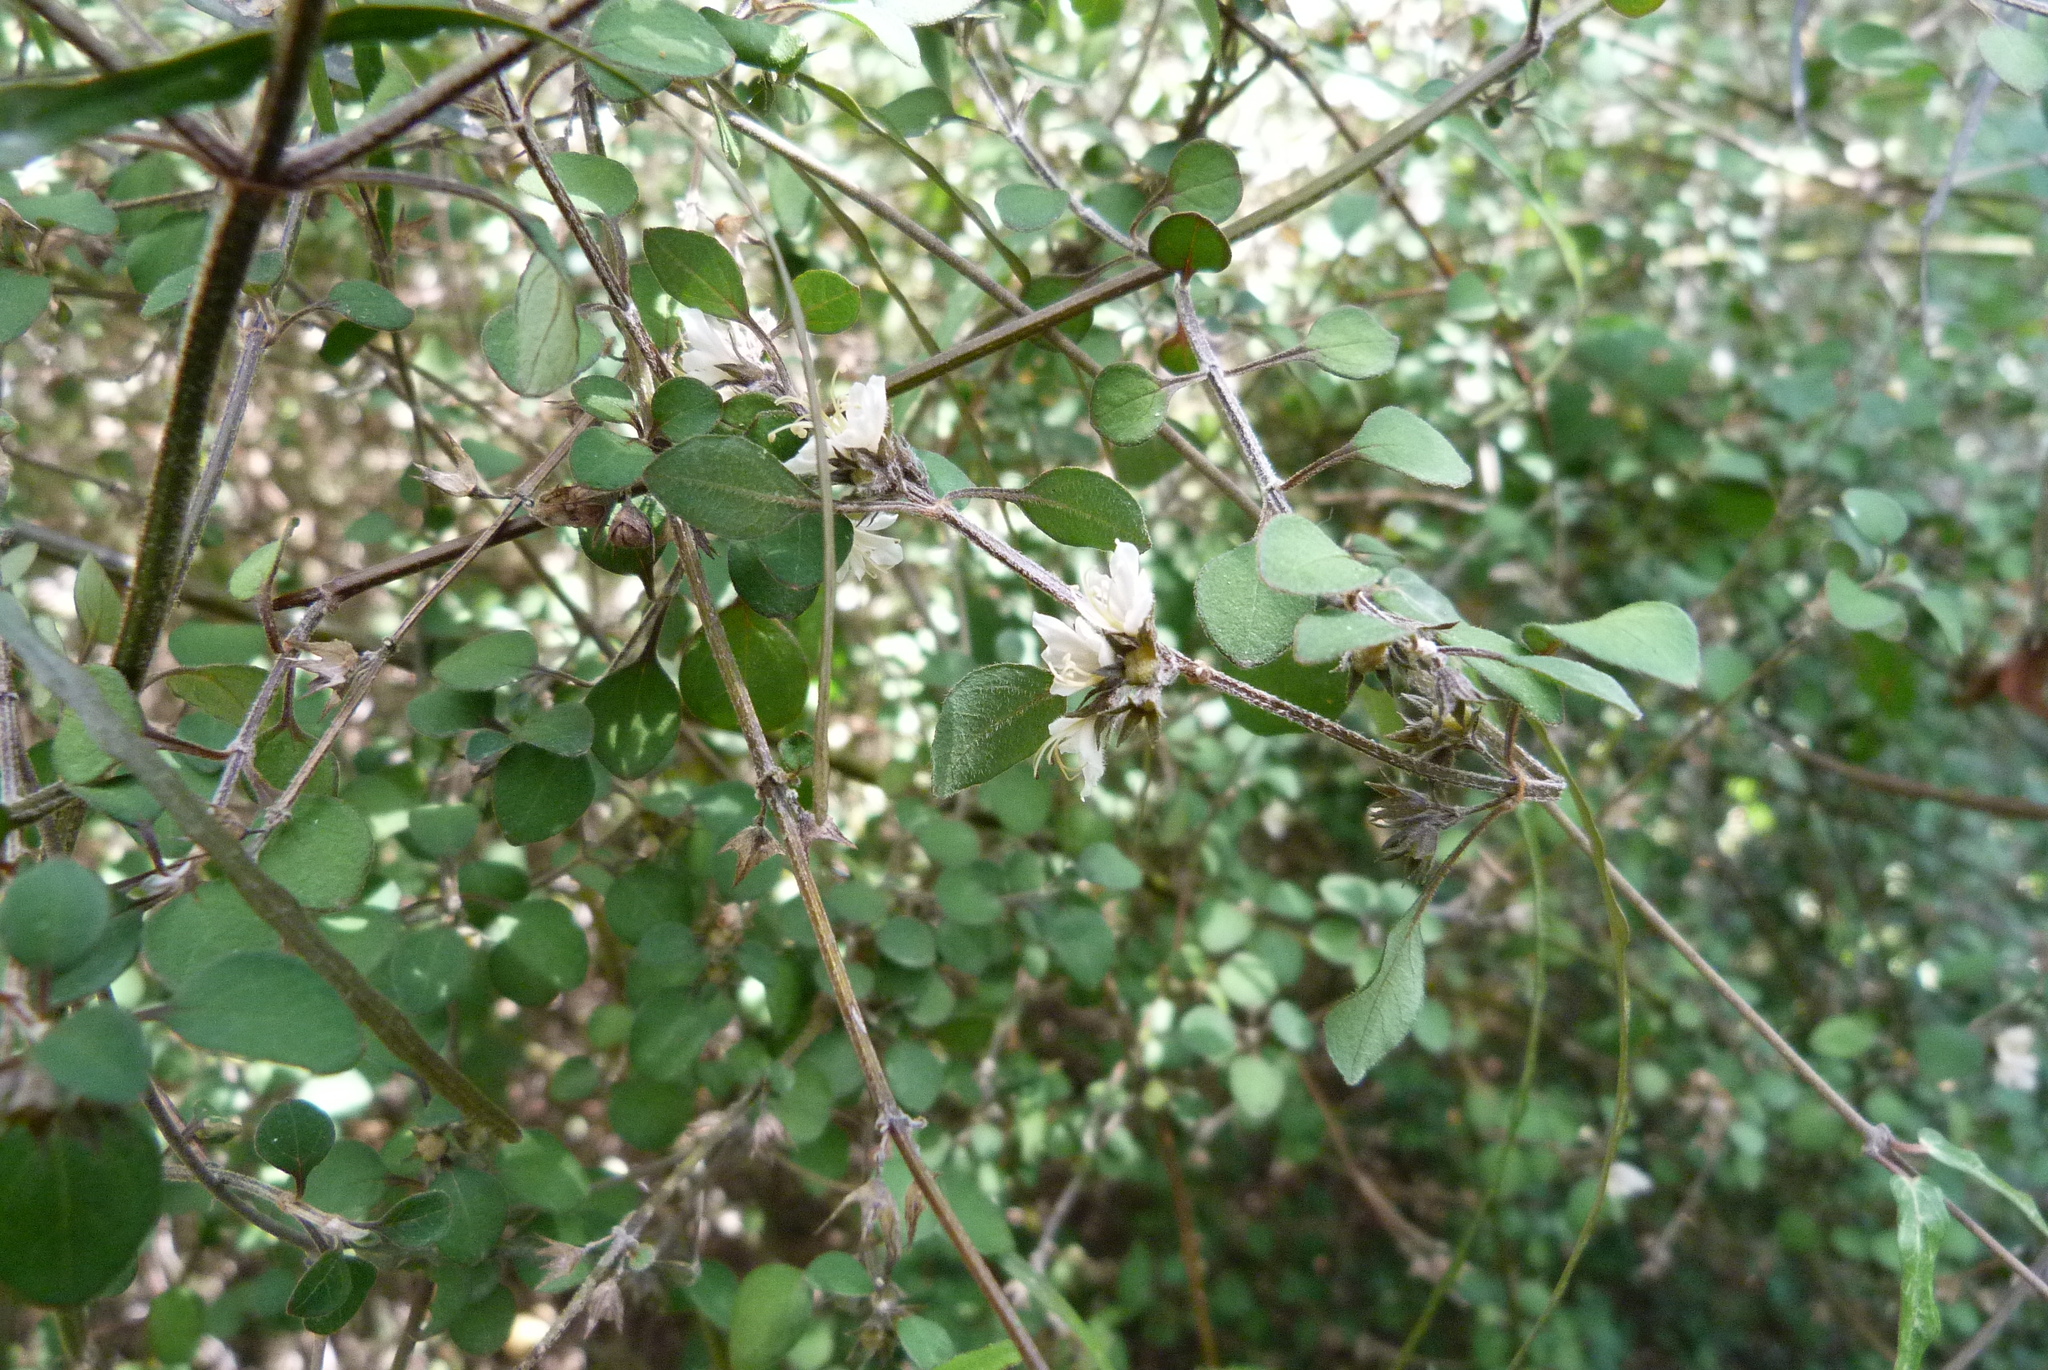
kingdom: Plantae
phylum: Tracheophyta
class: Magnoliopsida
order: Lamiales
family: Lamiaceae
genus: Teucrium
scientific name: Teucrium parvifolium
